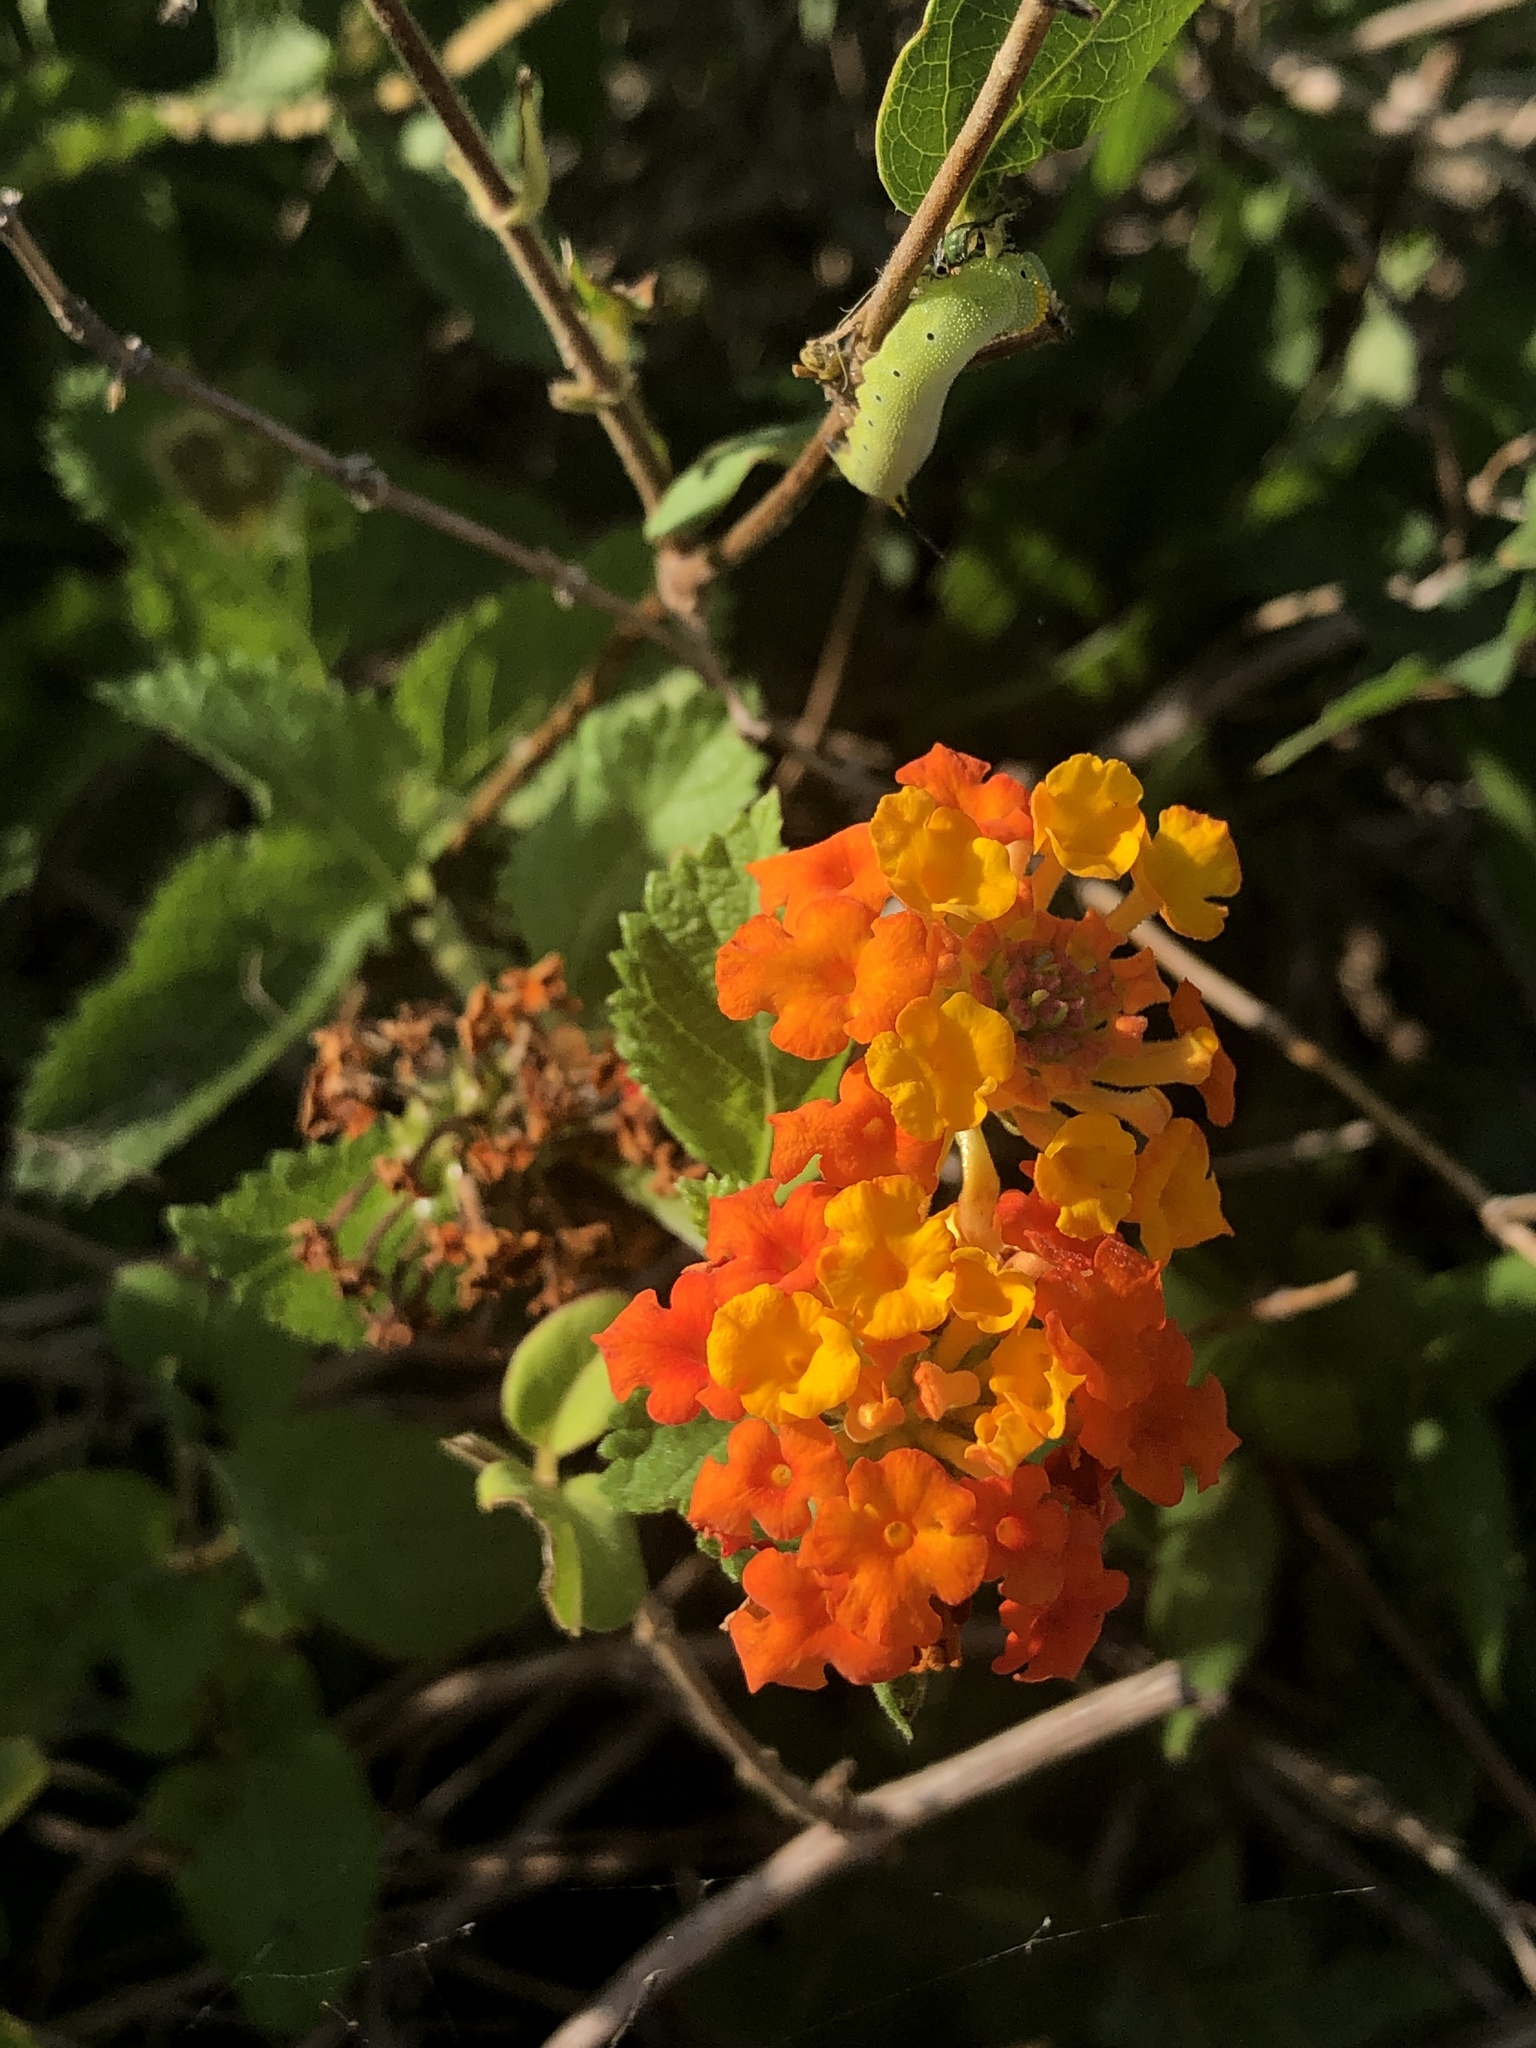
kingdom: Plantae
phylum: Tracheophyta
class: Magnoliopsida
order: Lamiales
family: Verbenaceae
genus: Lantana
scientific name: Lantana urticoides
